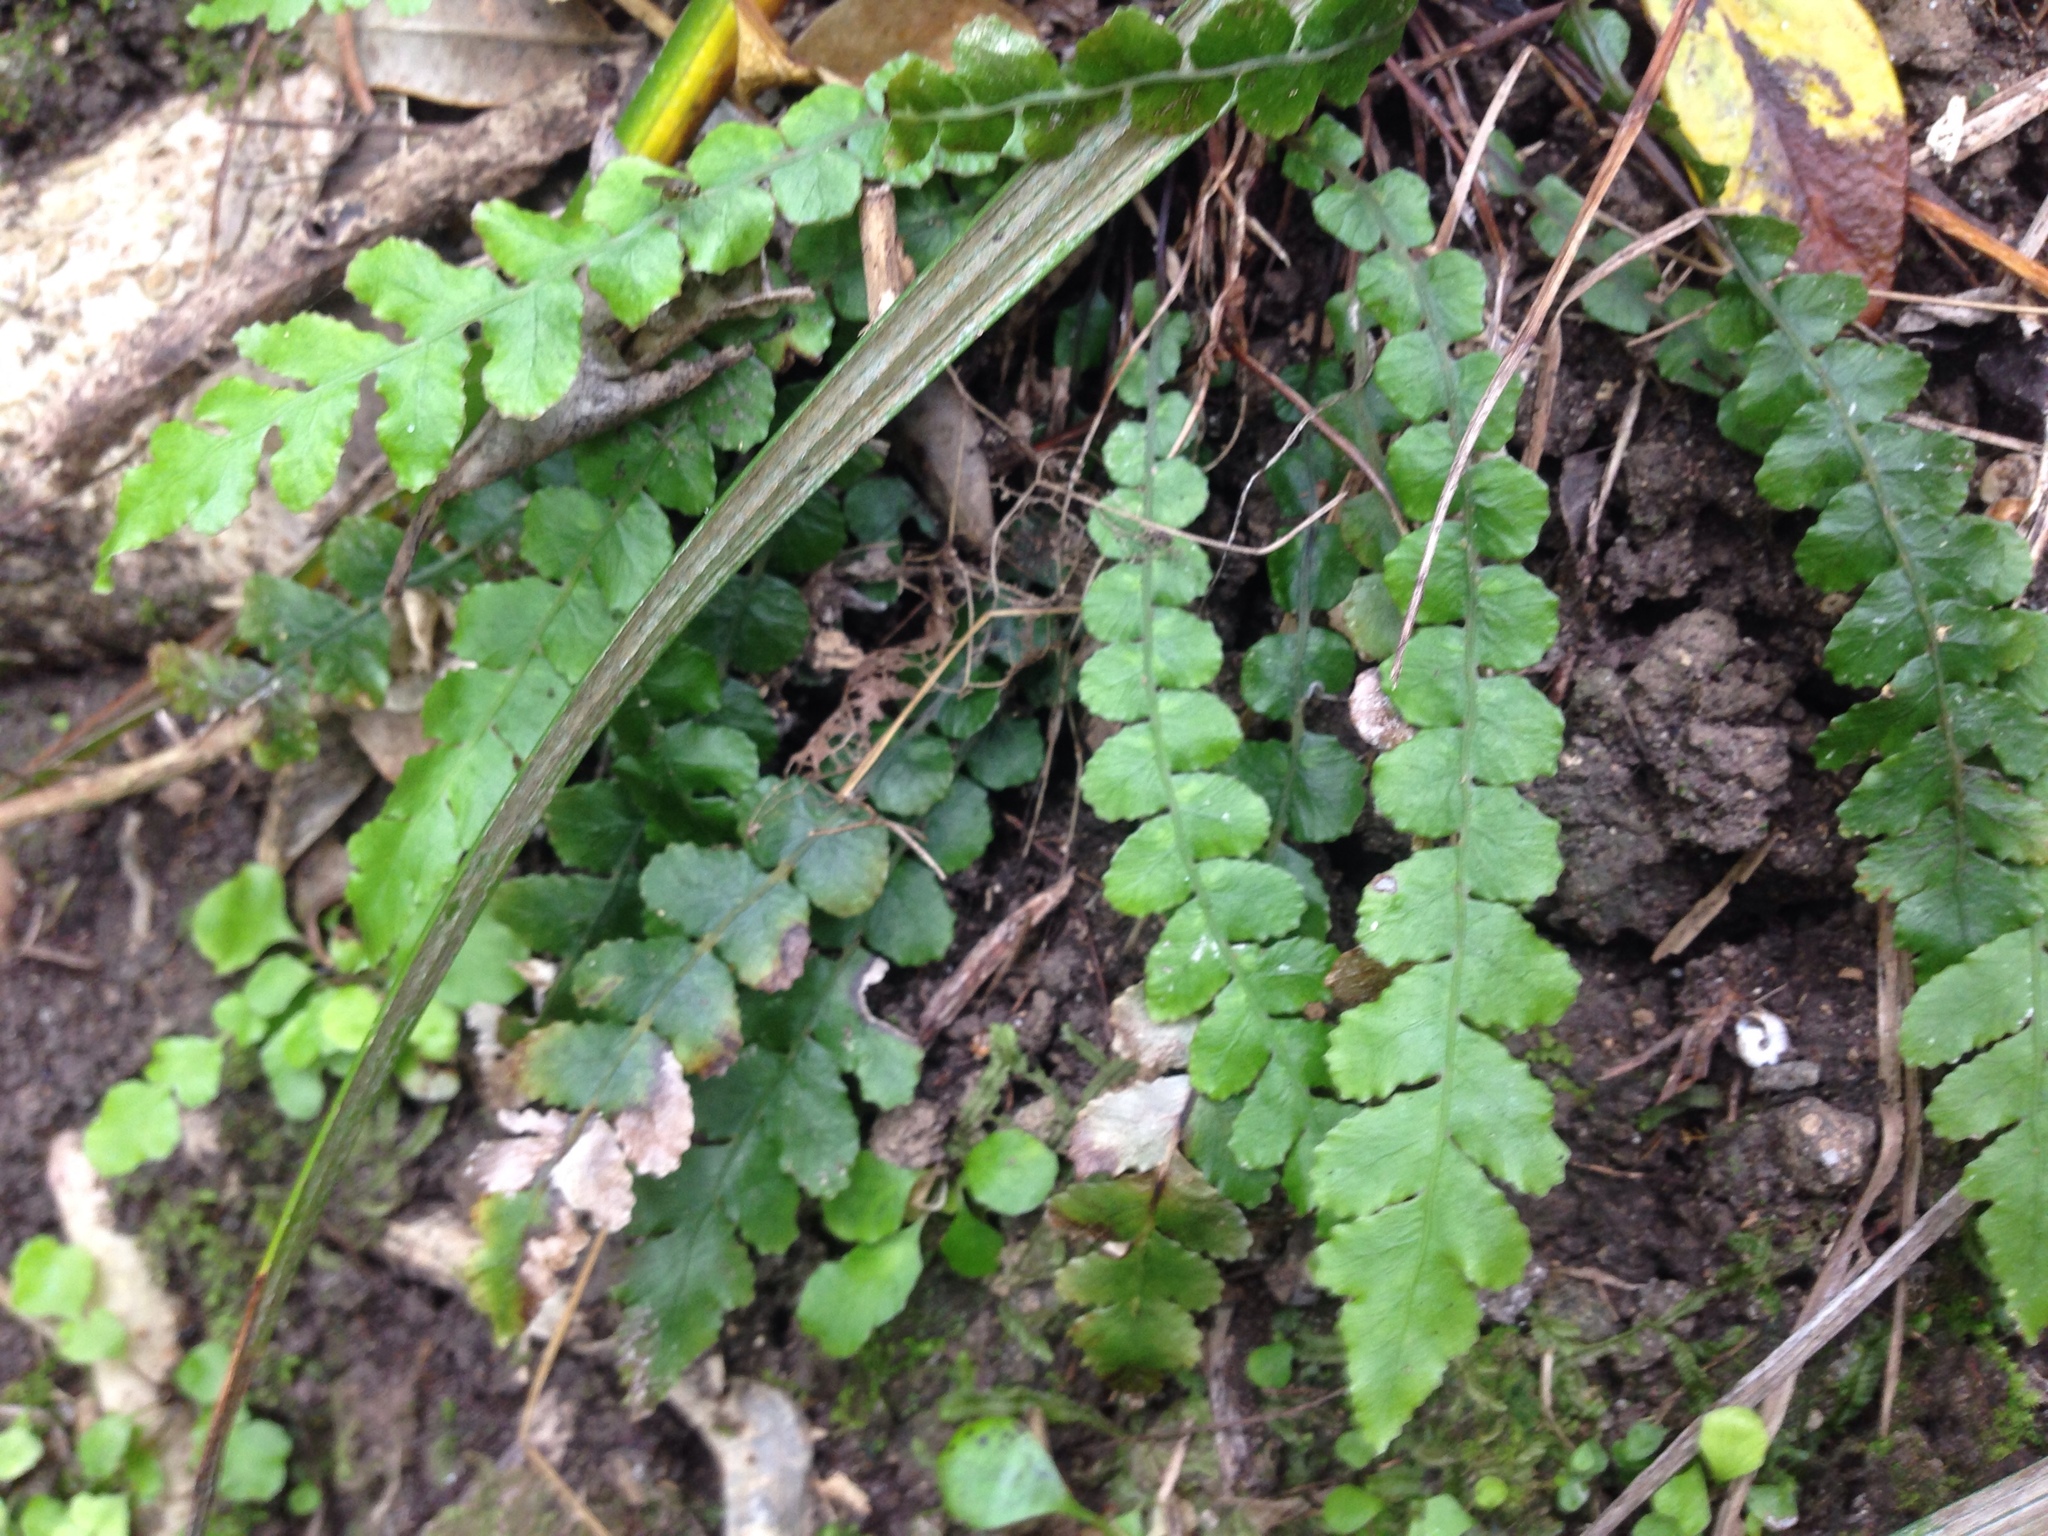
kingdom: Plantae
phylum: Tracheophyta
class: Polypodiopsida
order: Polypodiales
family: Blechnaceae
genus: Austroblechnum
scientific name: Austroblechnum membranaceum
